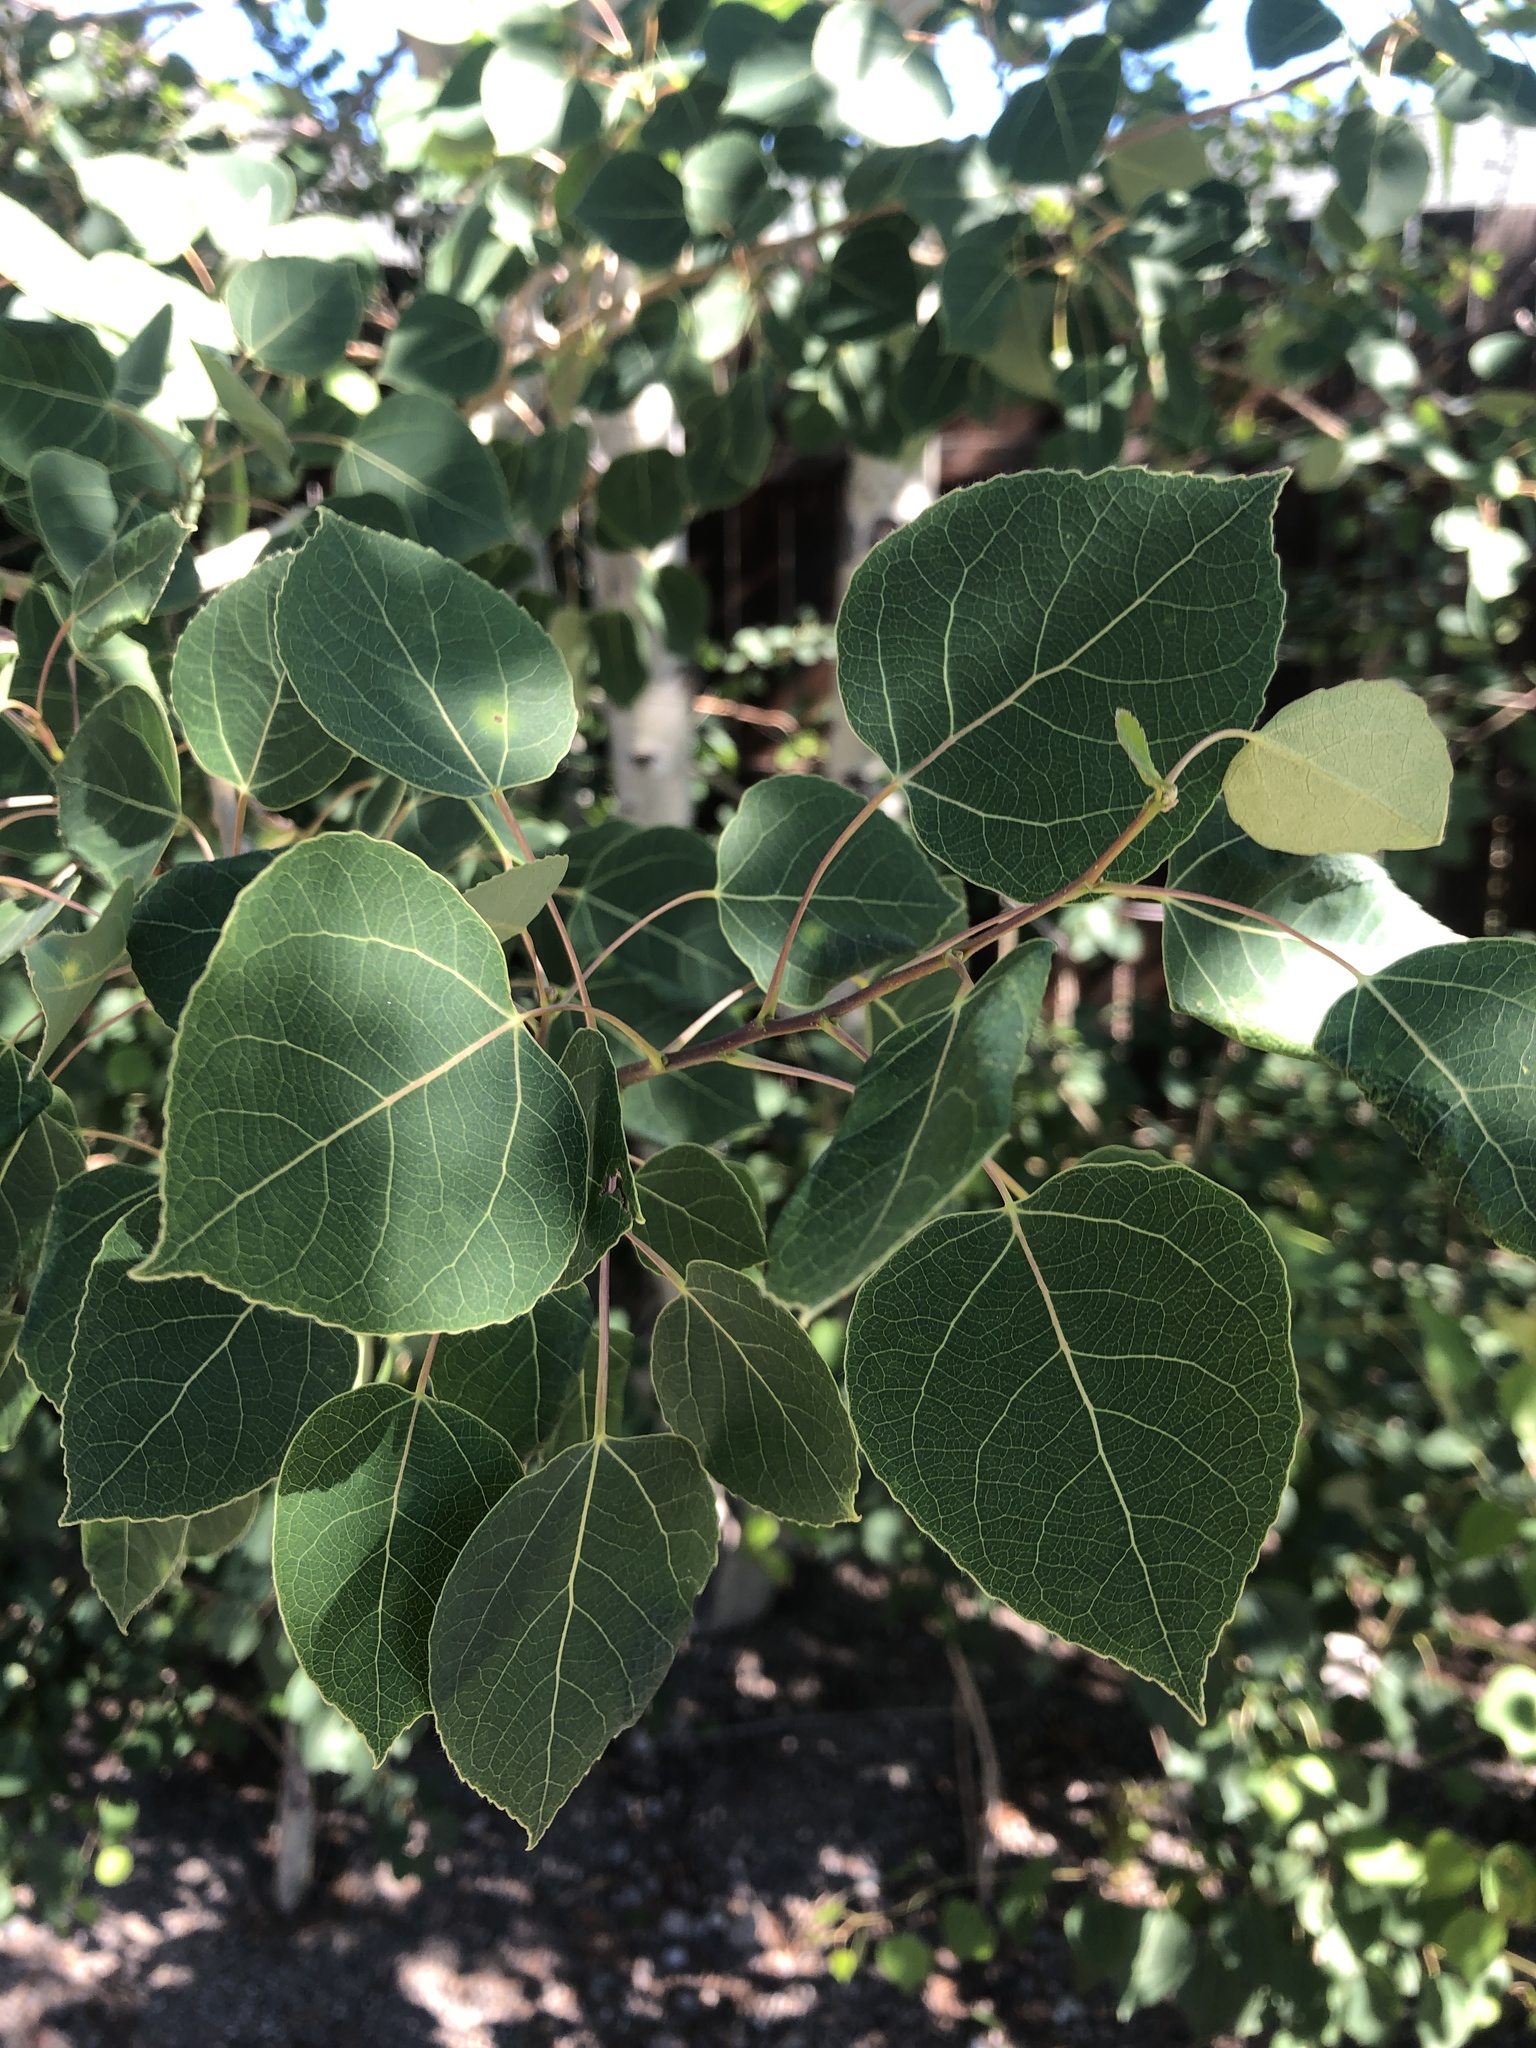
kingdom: Plantae
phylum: Tracheophyta
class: Magnoliopsida
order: Malpighiales
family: Salicaceae
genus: Populus
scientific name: Populus tremuloides
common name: Quaking aspen
